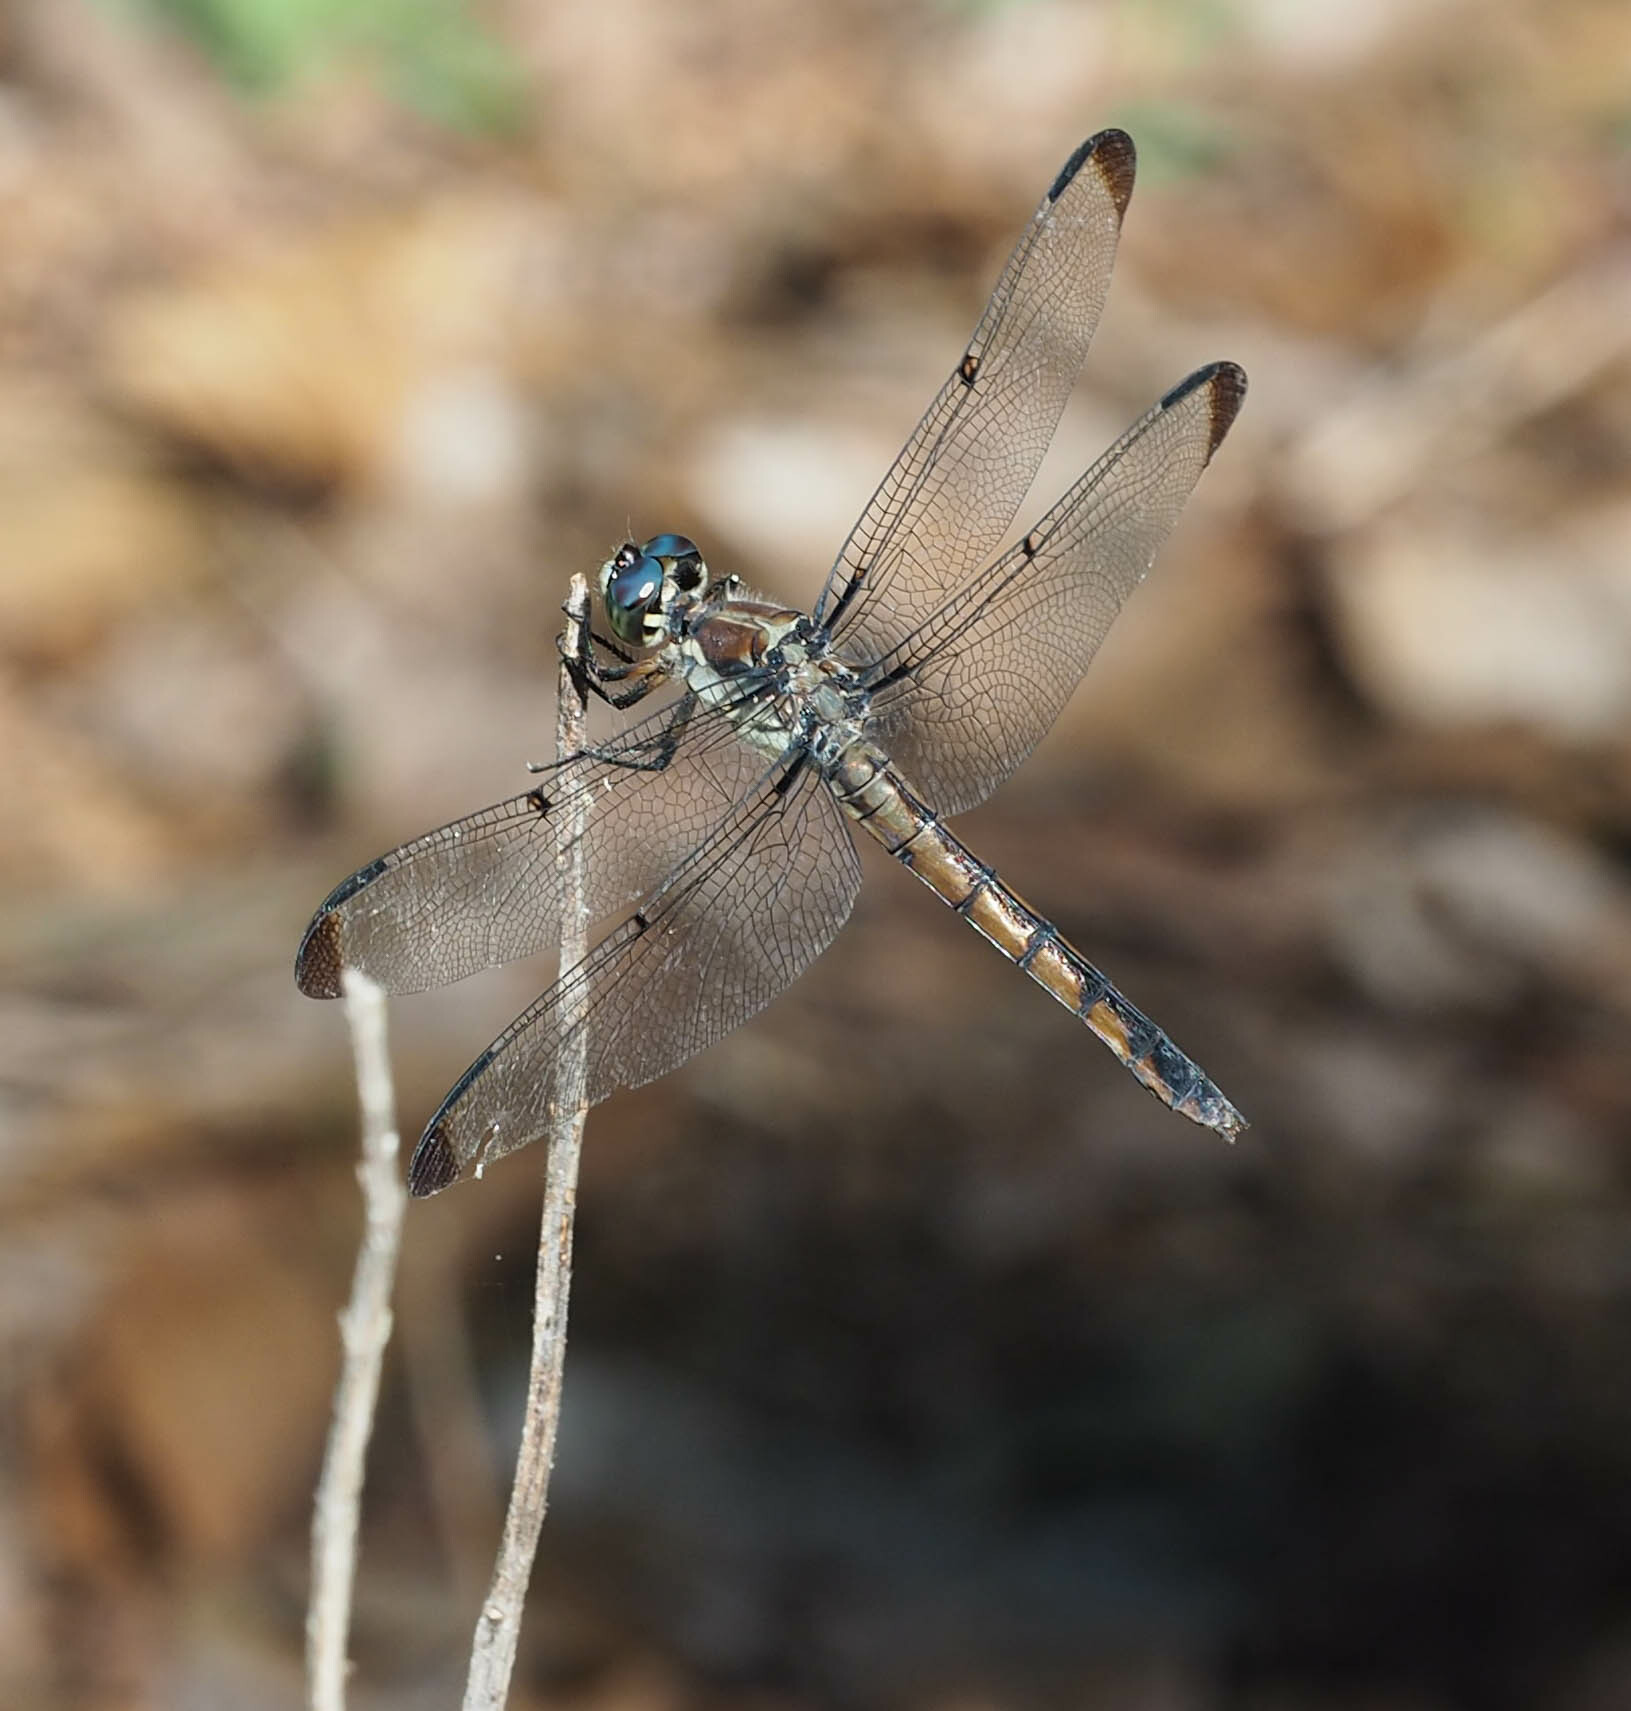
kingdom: Animalia
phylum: Arthropoda
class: Insecta
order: Odonata
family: Libellulidae
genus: Libellula
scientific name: Libellula vibrans
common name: Great blue skimmer
